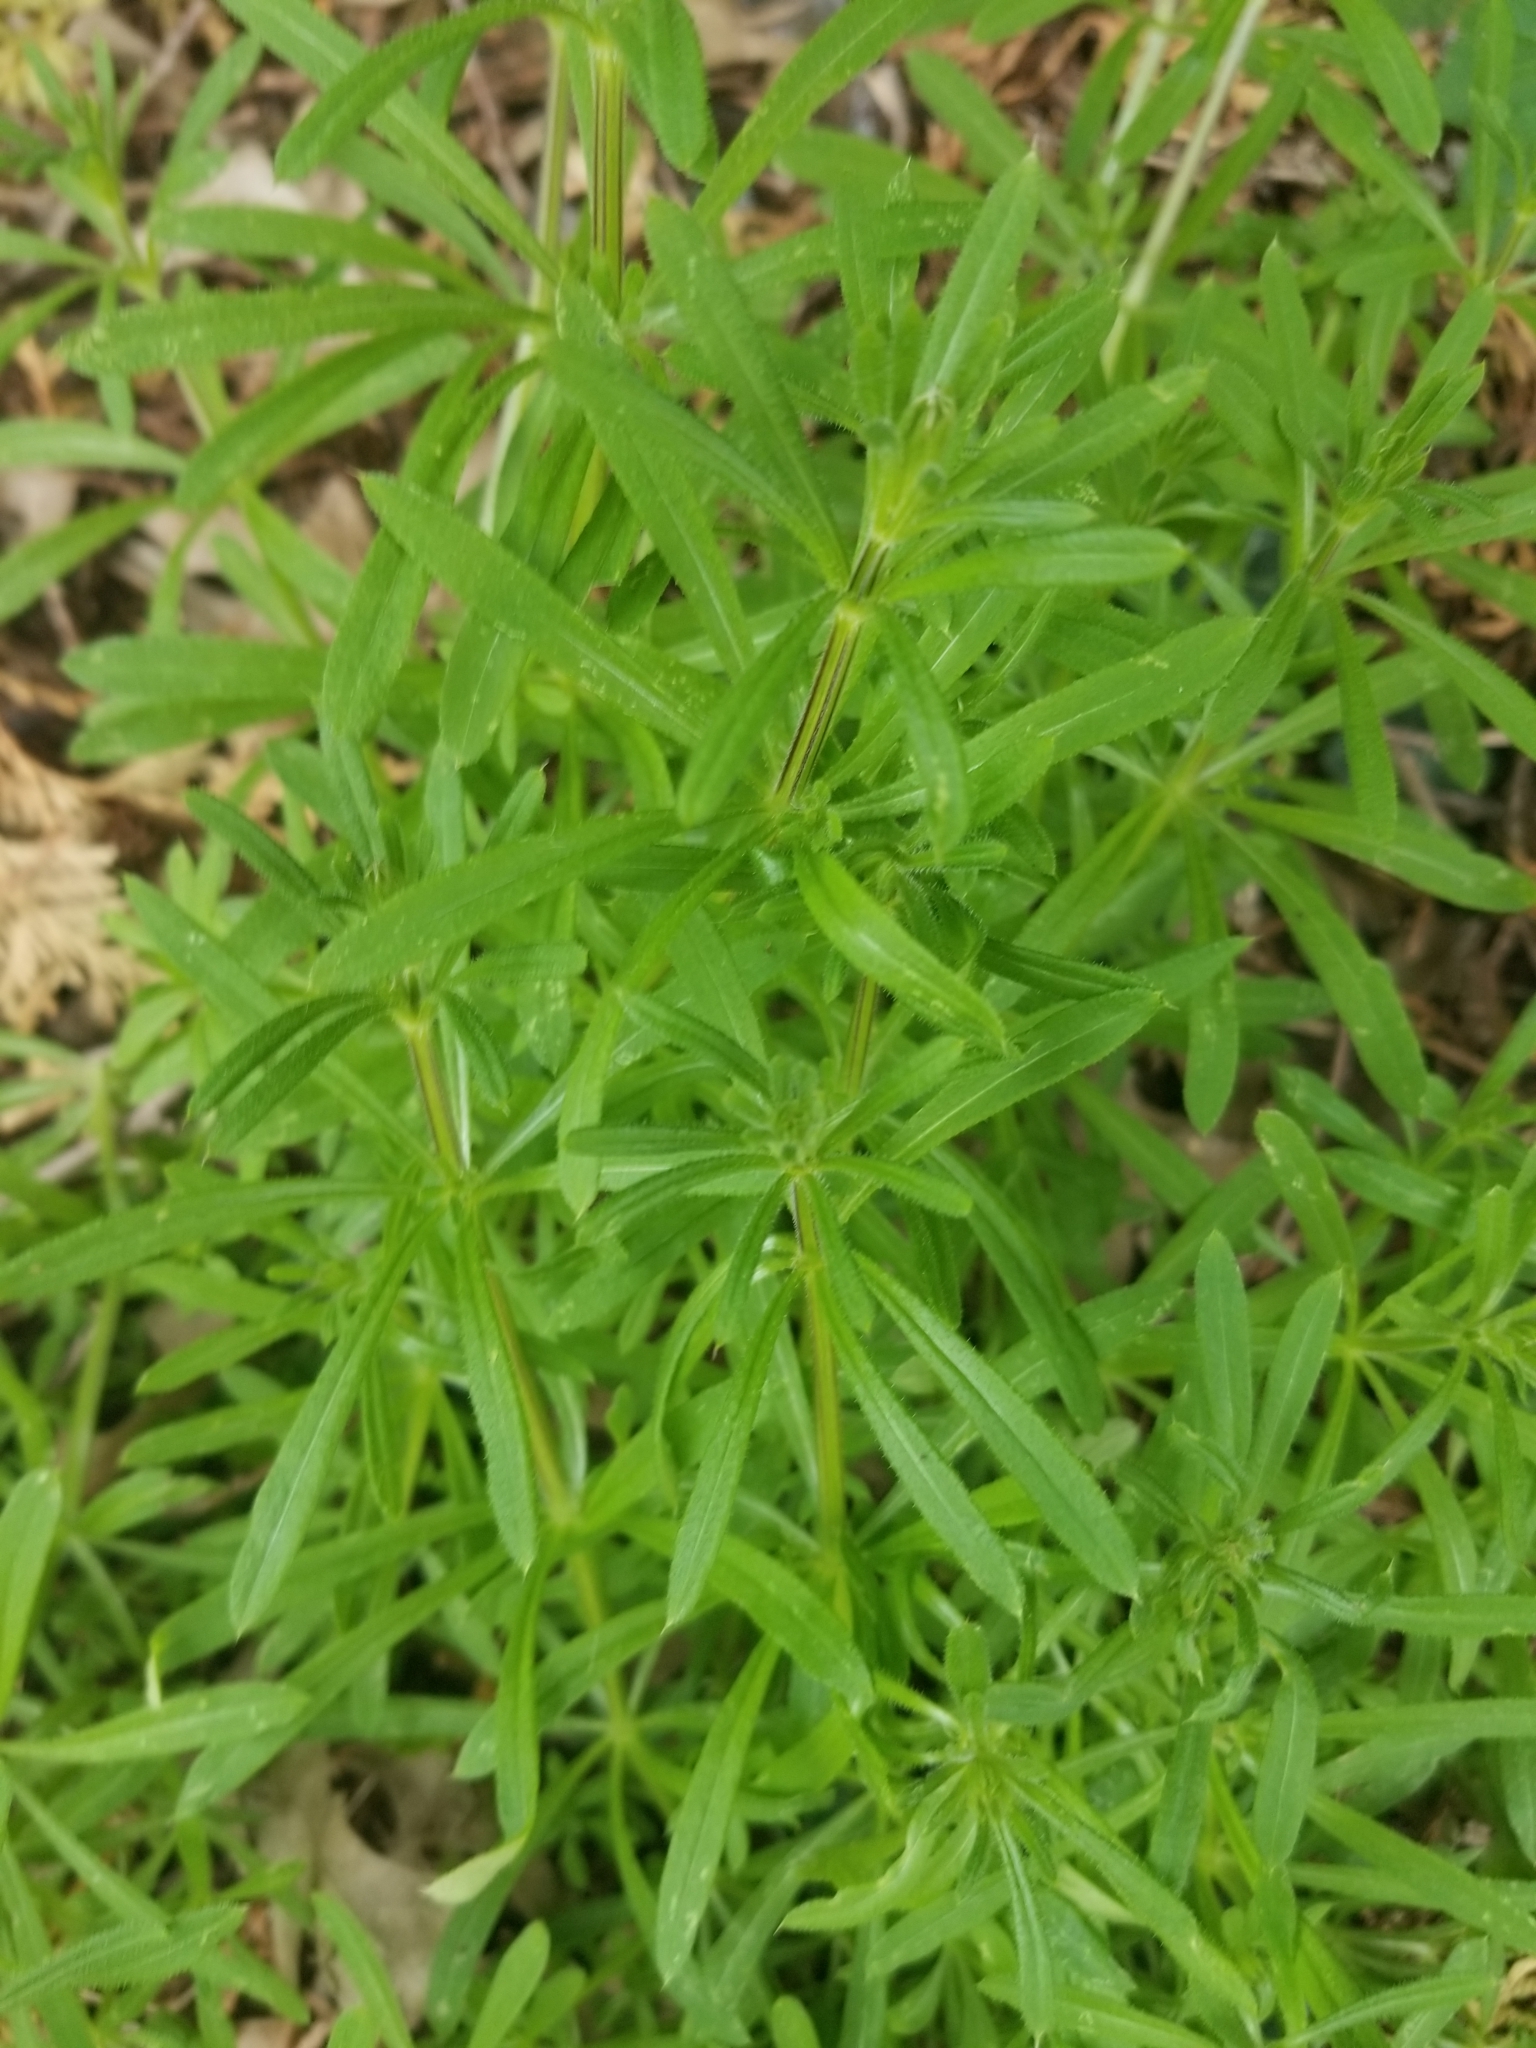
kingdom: Plantae
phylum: Tracheophyta
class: Magnoliopsida
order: Gentianales
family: Rubiaceae
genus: Galium
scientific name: Galium aparine
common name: Cleavers
